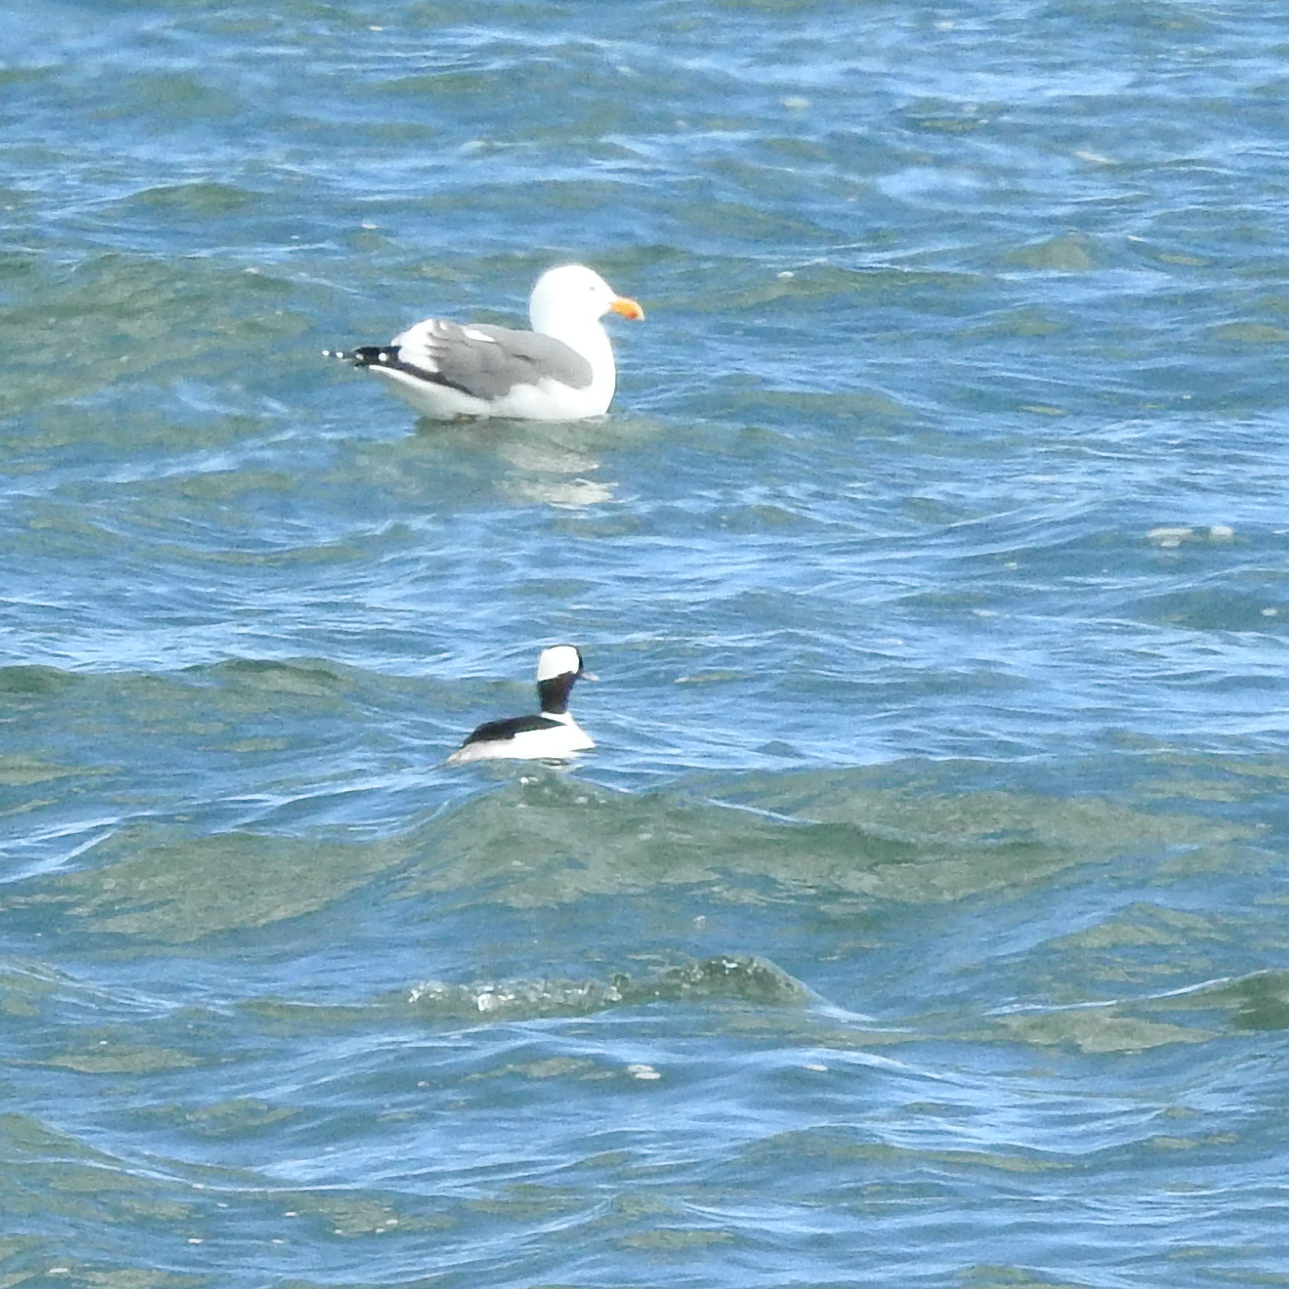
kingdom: Animalia
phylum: Chordata
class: Aves
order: Anseriformes
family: Anatidae
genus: Bucephala
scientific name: Bucephala albeola
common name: Bufflehead
